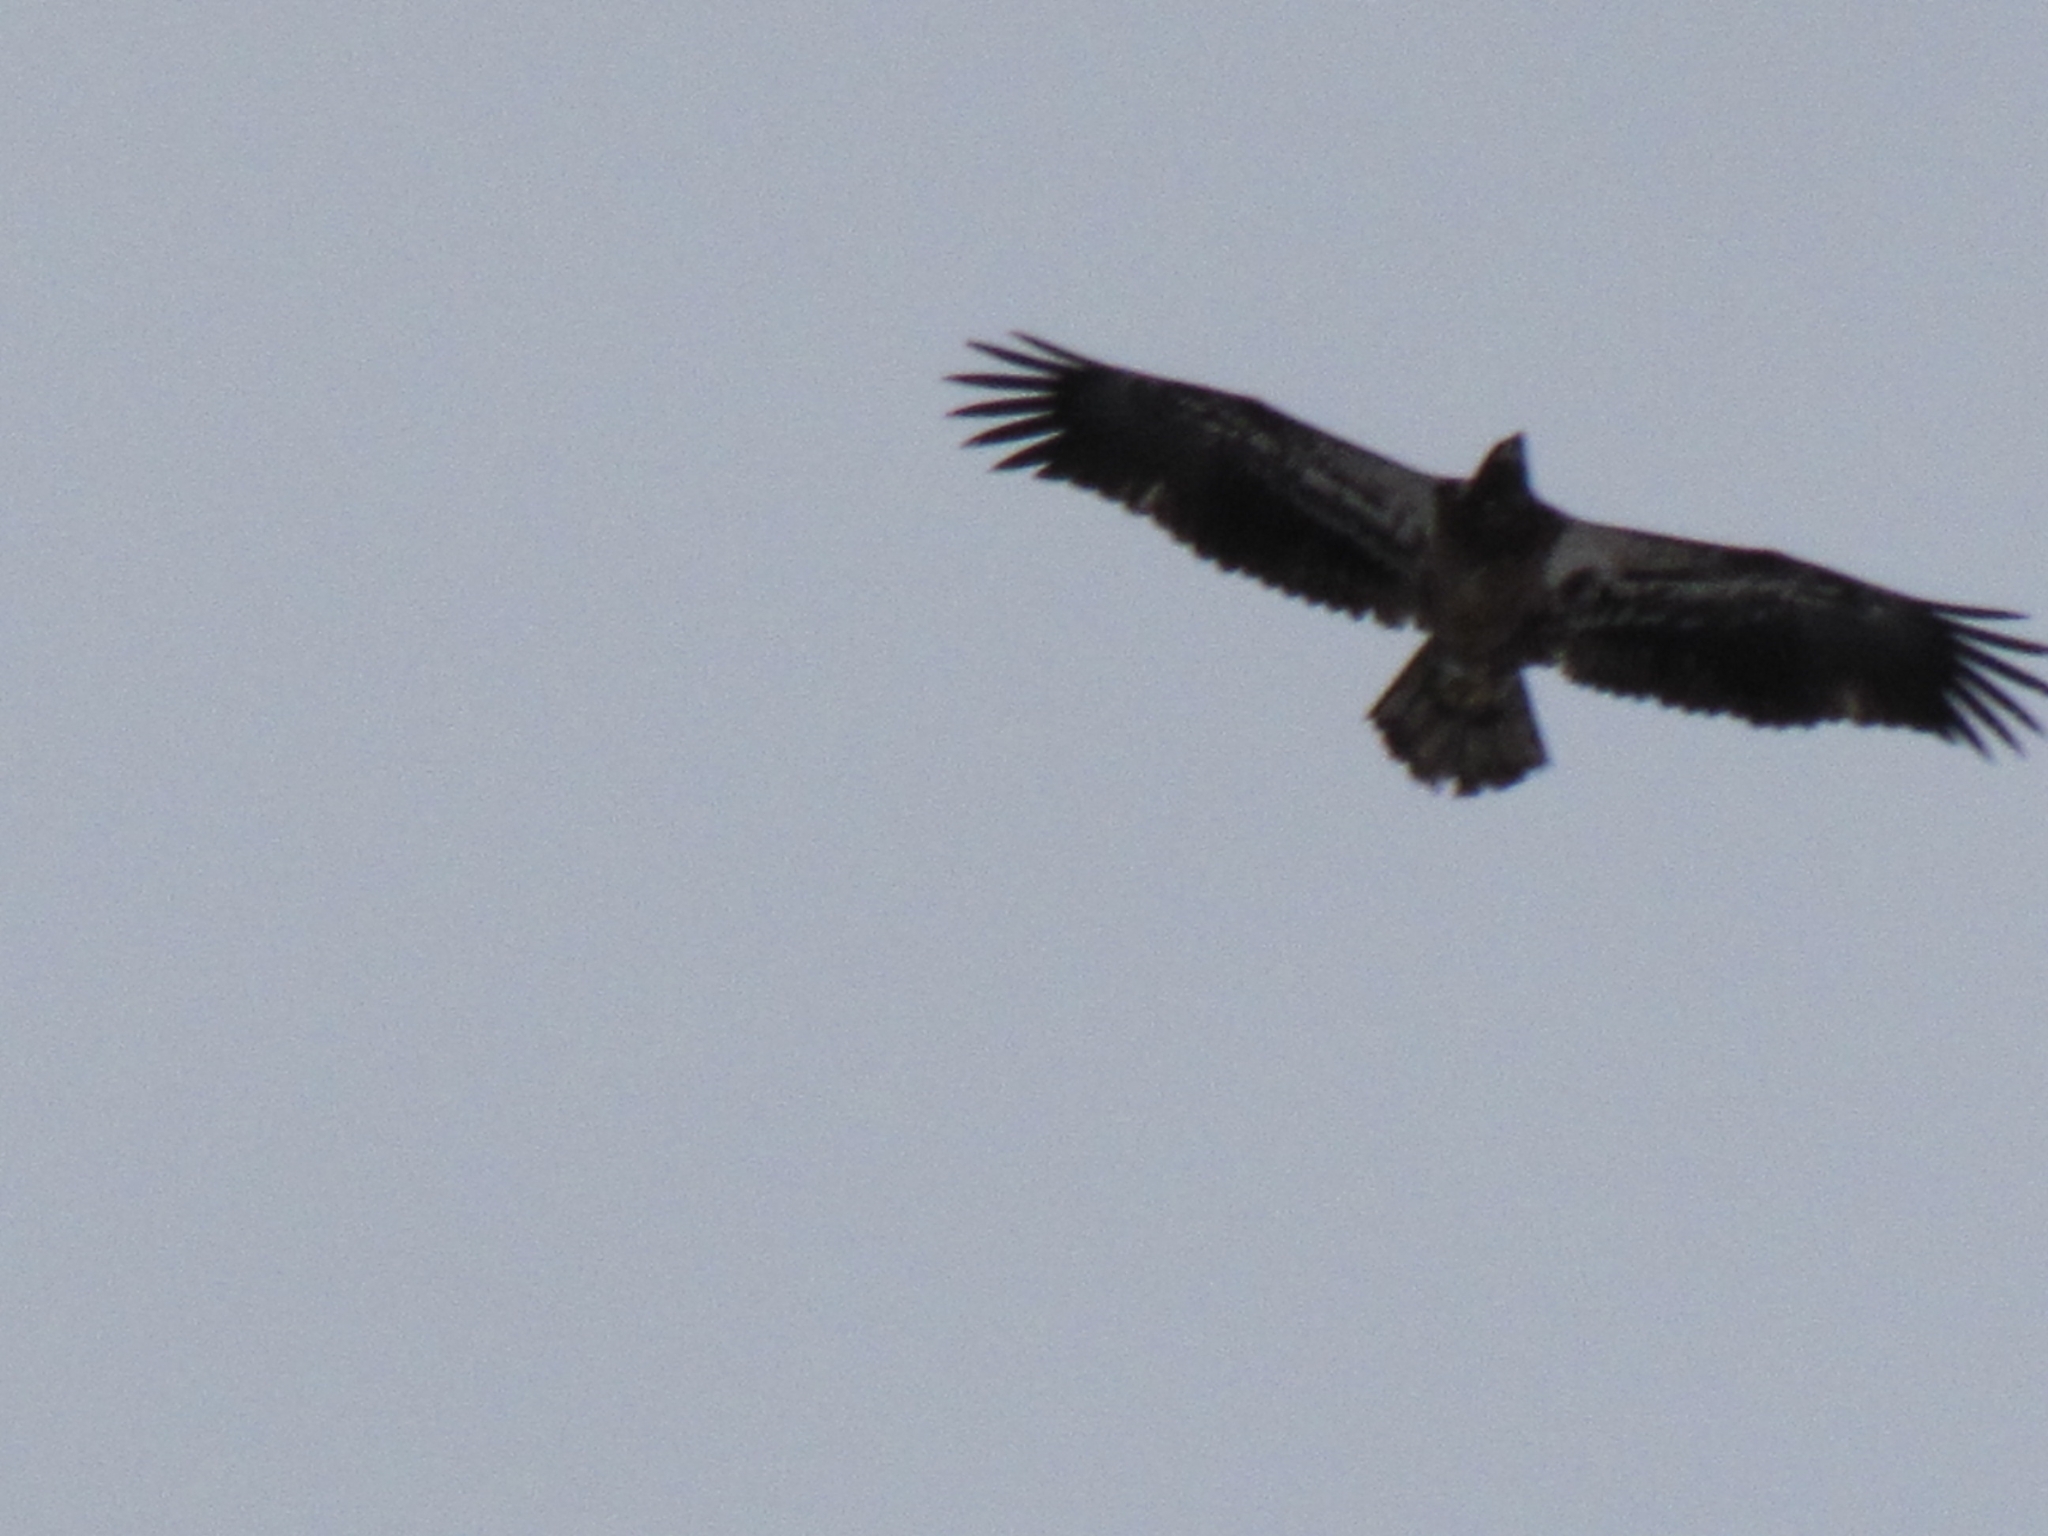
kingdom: Animalia
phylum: Chordata
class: Aves
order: Accipitriformes
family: Accipitridae
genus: Haliaeetus
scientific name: Haliaeetus leucocephalus
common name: Bald eagle
